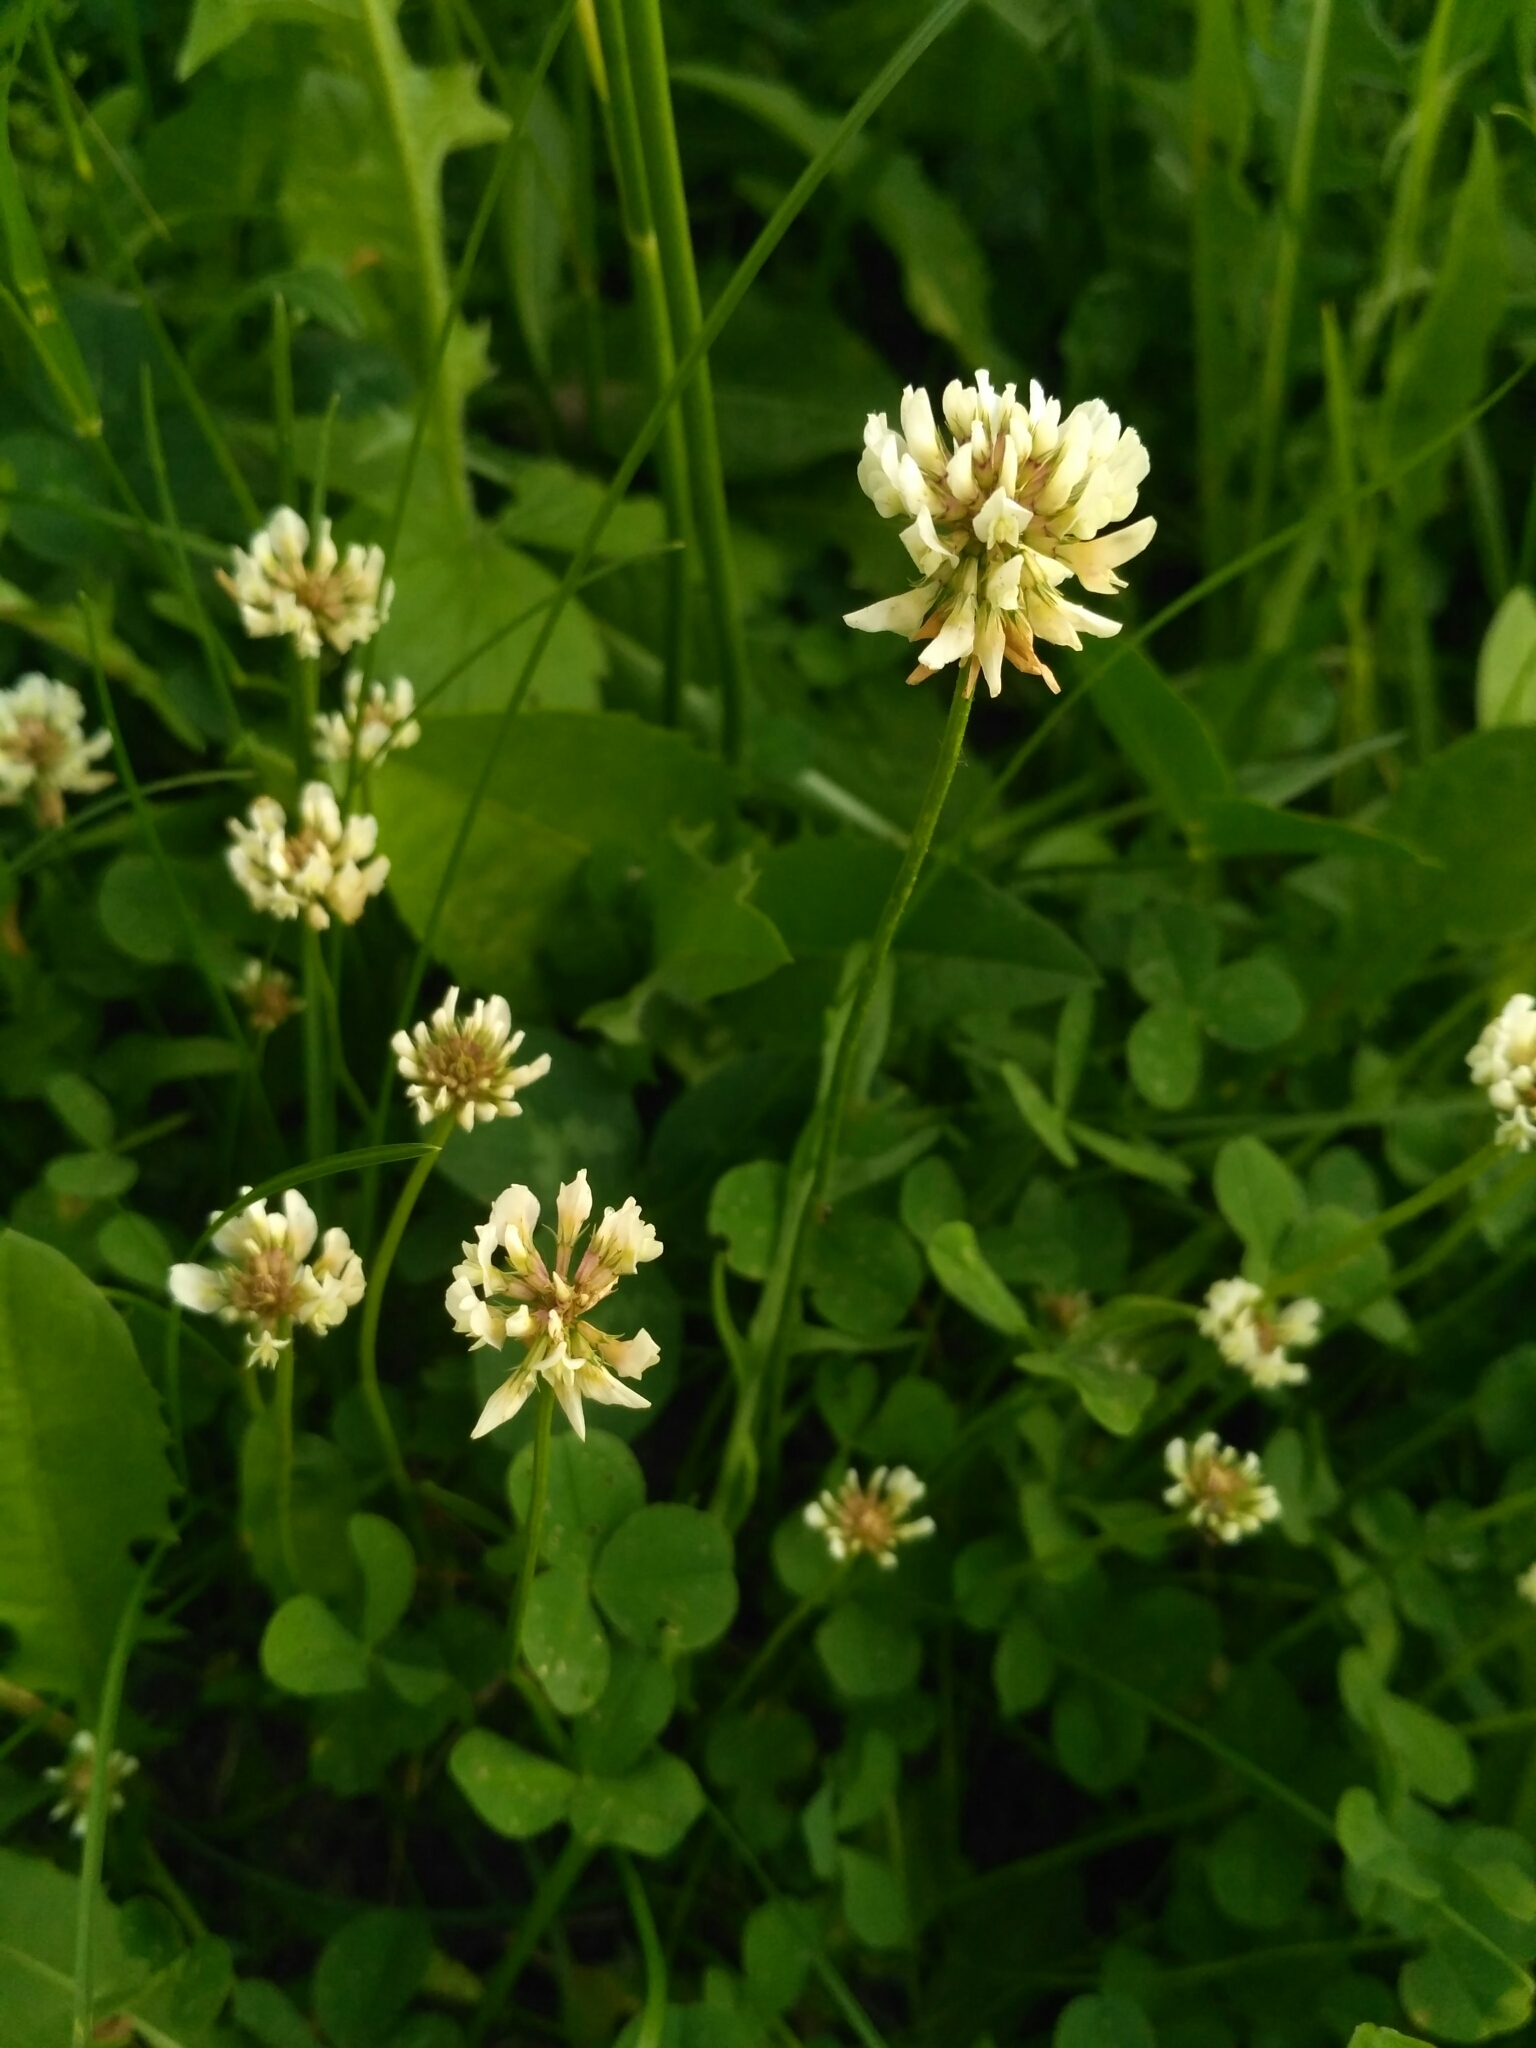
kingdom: Plantae
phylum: Tracheophyta
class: Magnoliopsida
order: Fabales
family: Fabaceae
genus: Trifolium
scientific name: Trifolium repens
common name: White clover
